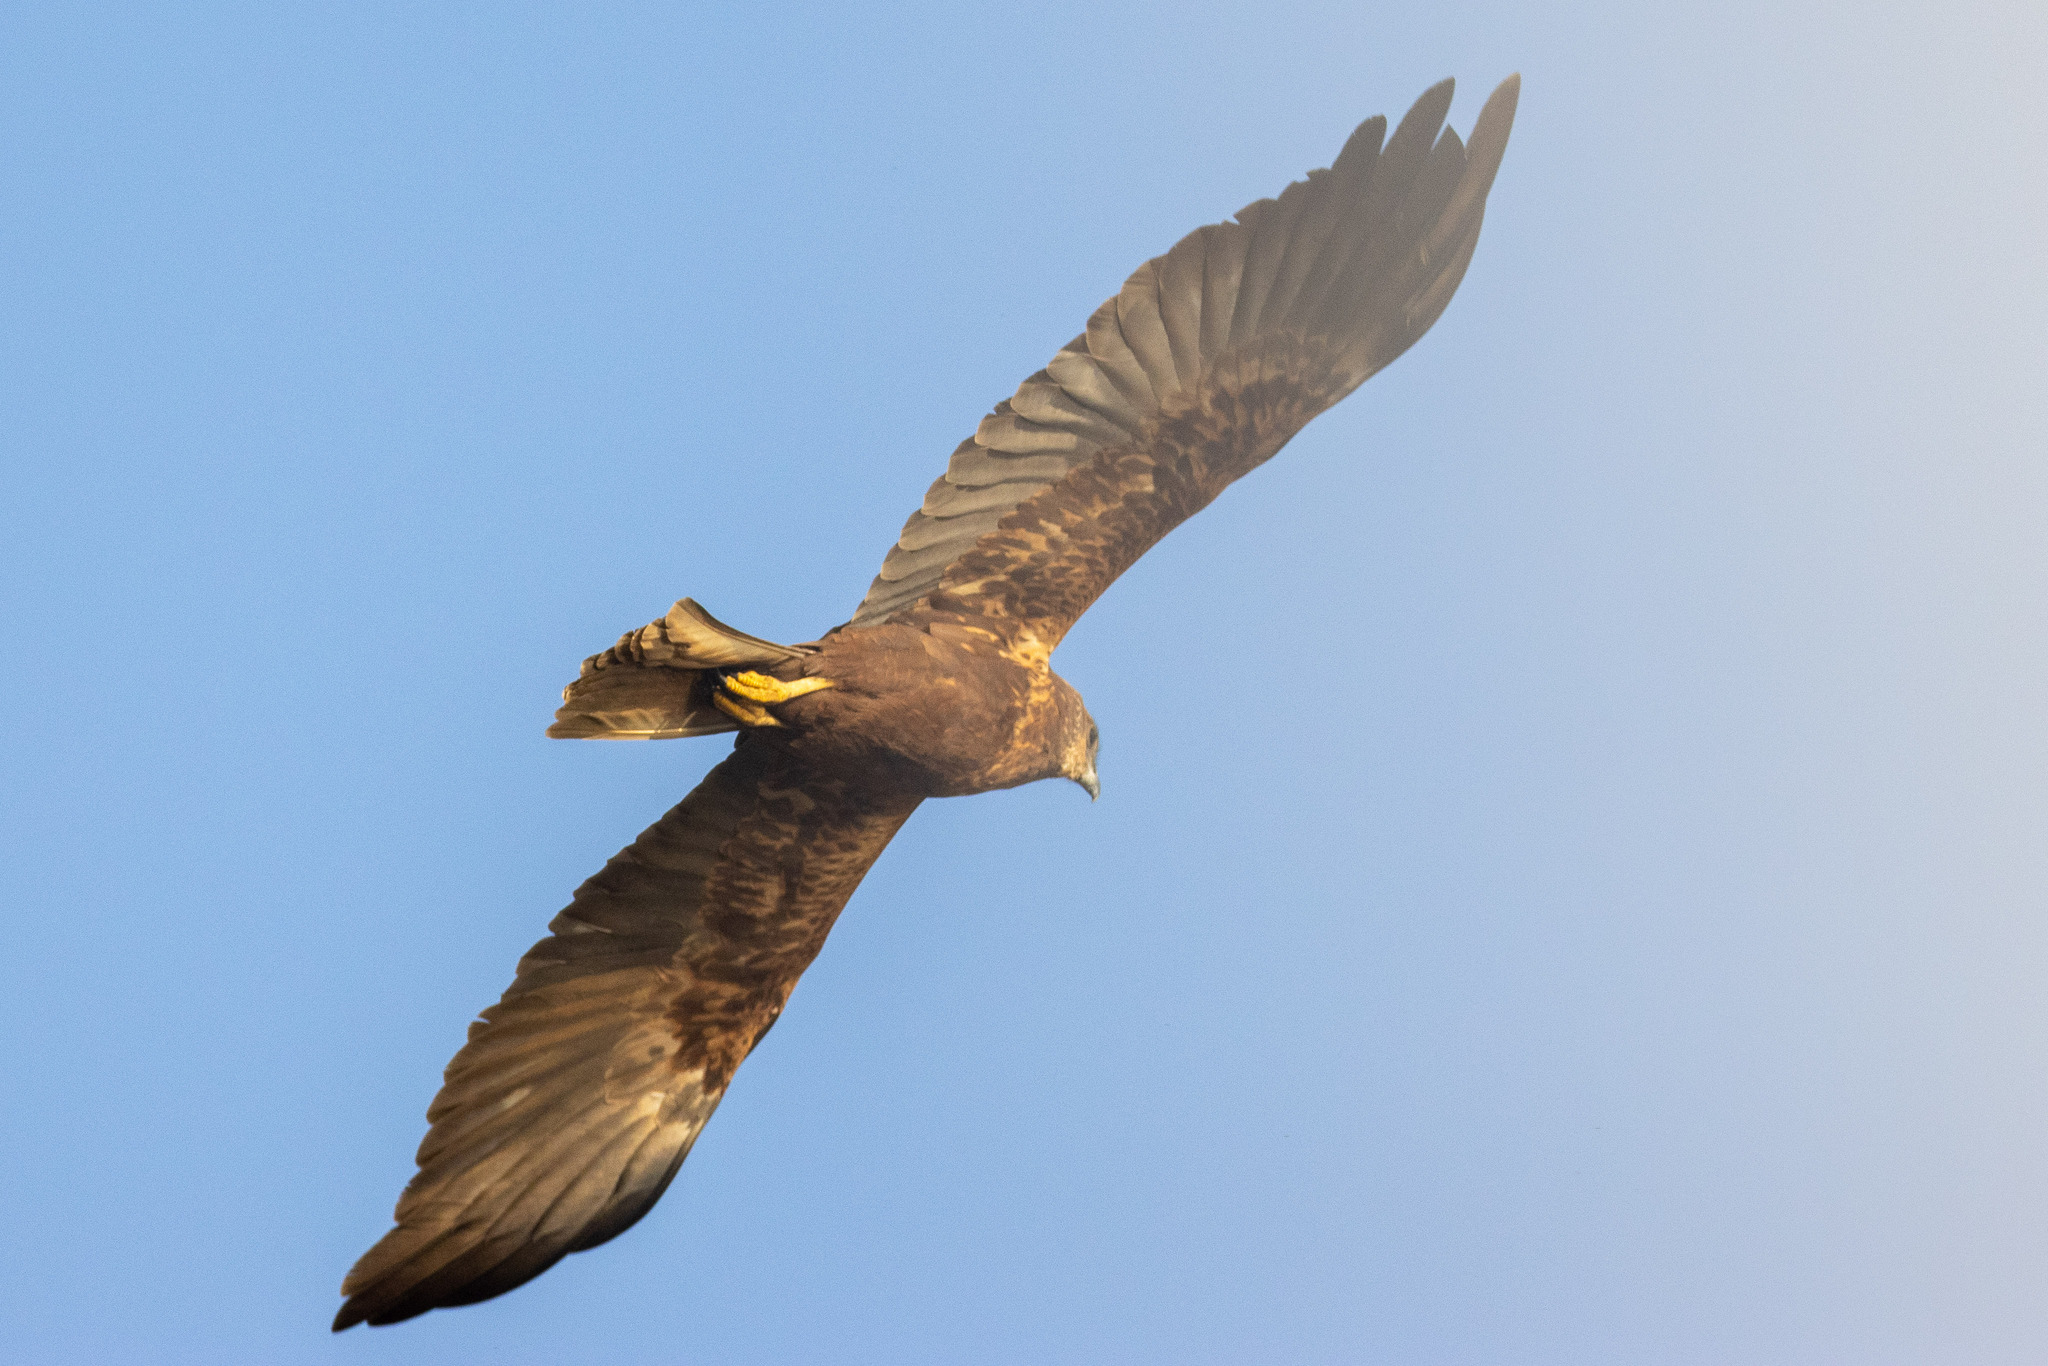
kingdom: Animalia
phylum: Chordata
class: Aves
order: Accipitriformes
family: Accipitridae
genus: Circus
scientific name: Circus aeruginosus
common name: Western marsh harrier
